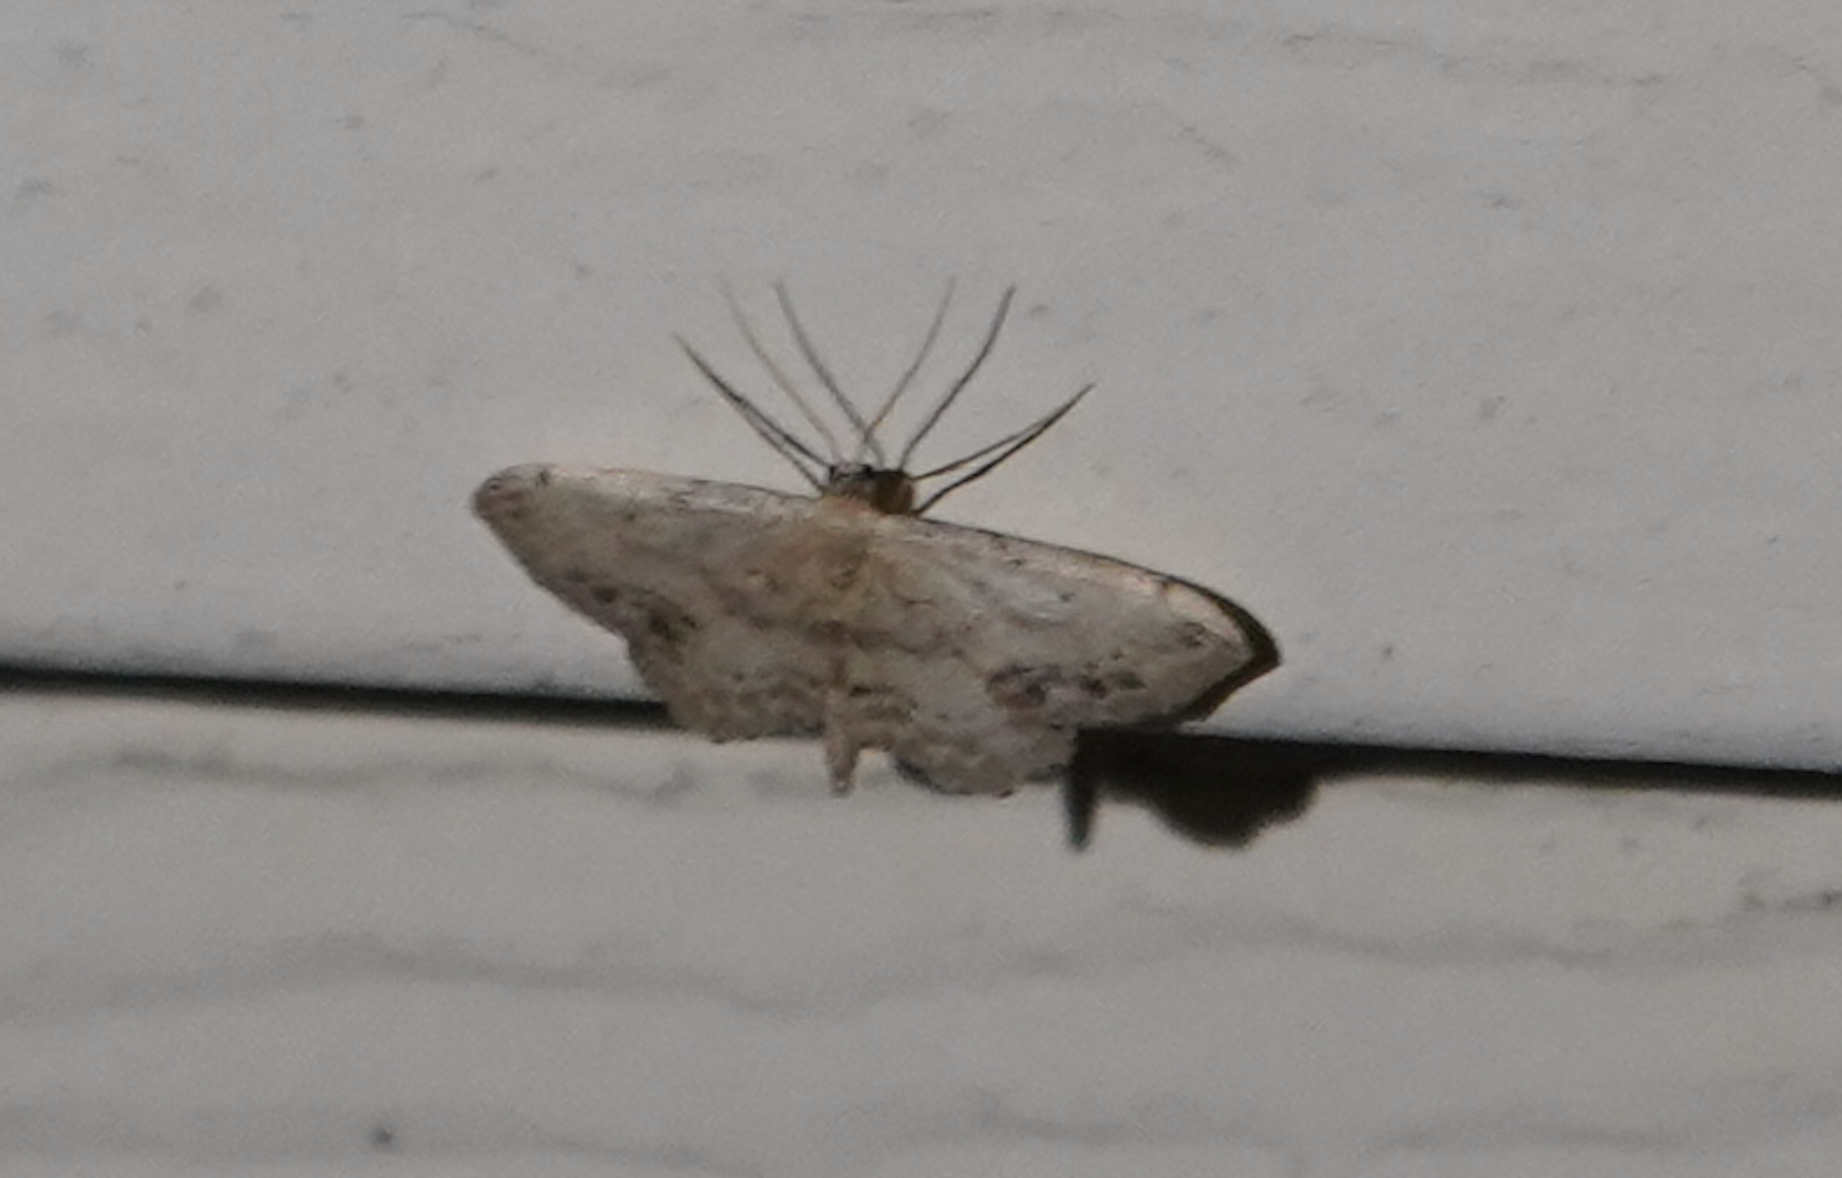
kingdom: Animalia
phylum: Arthropoda
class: Insecta
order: Lepidoptera
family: Geometridae
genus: Idaea
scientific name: Idaea dimidiata
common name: Single-dotted wave
